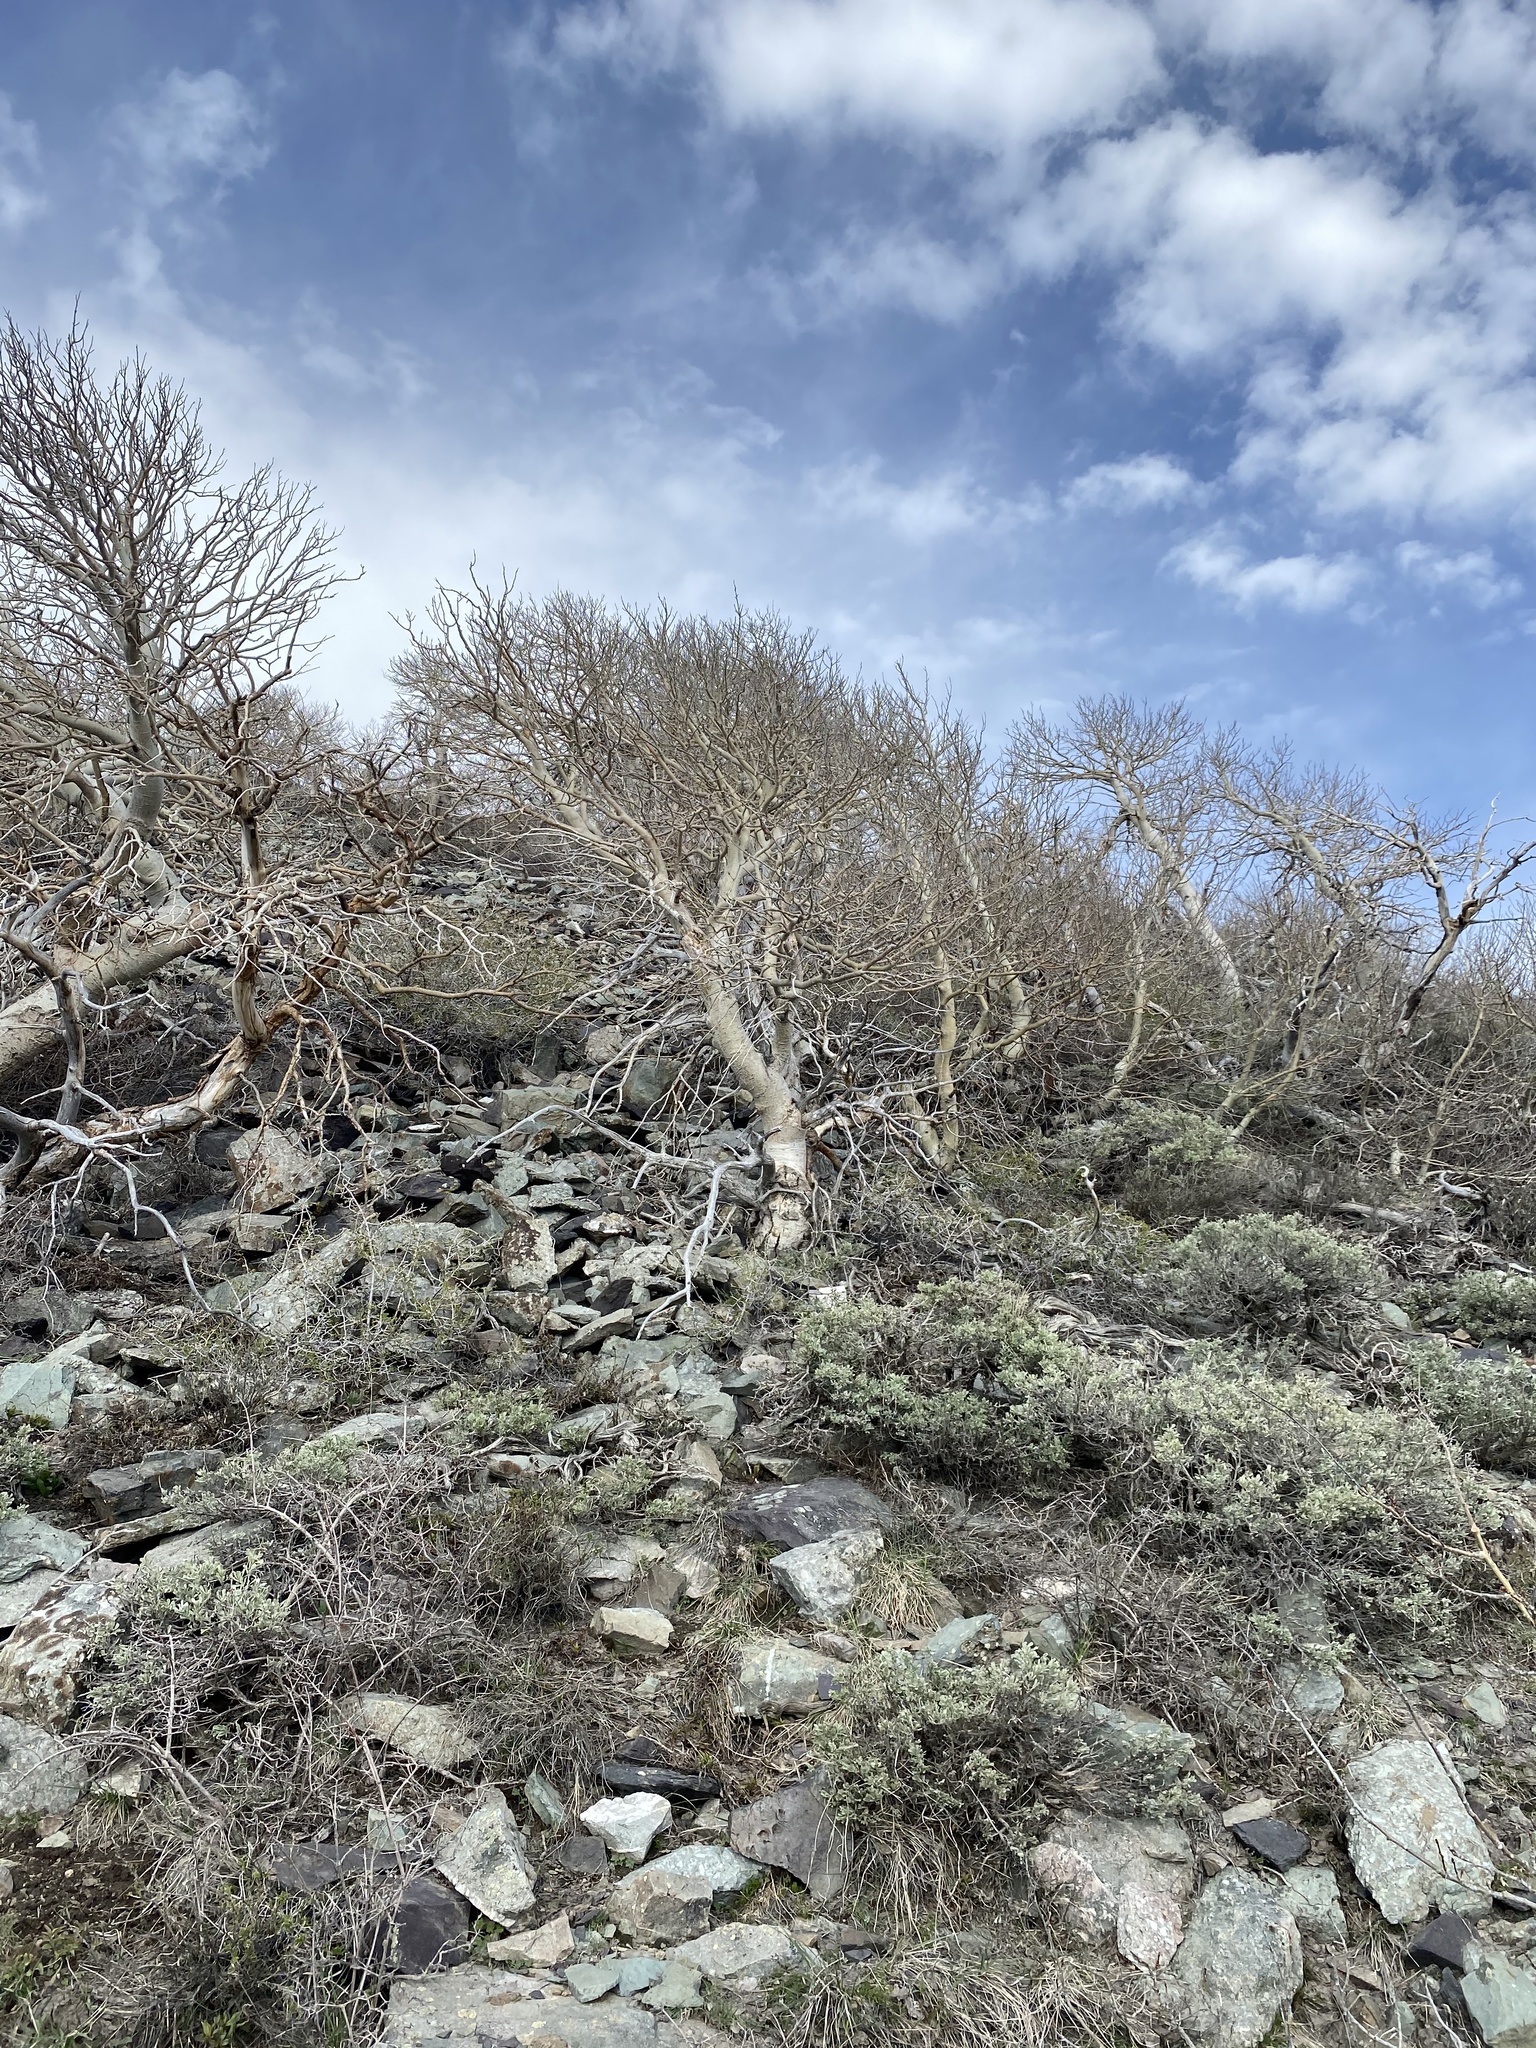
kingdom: Plantae
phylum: Tracheophyta
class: Magnoliopsida
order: Malpighiales
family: Salicaceae
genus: Populus
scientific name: Populus tremuloides
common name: Quaking aspen
